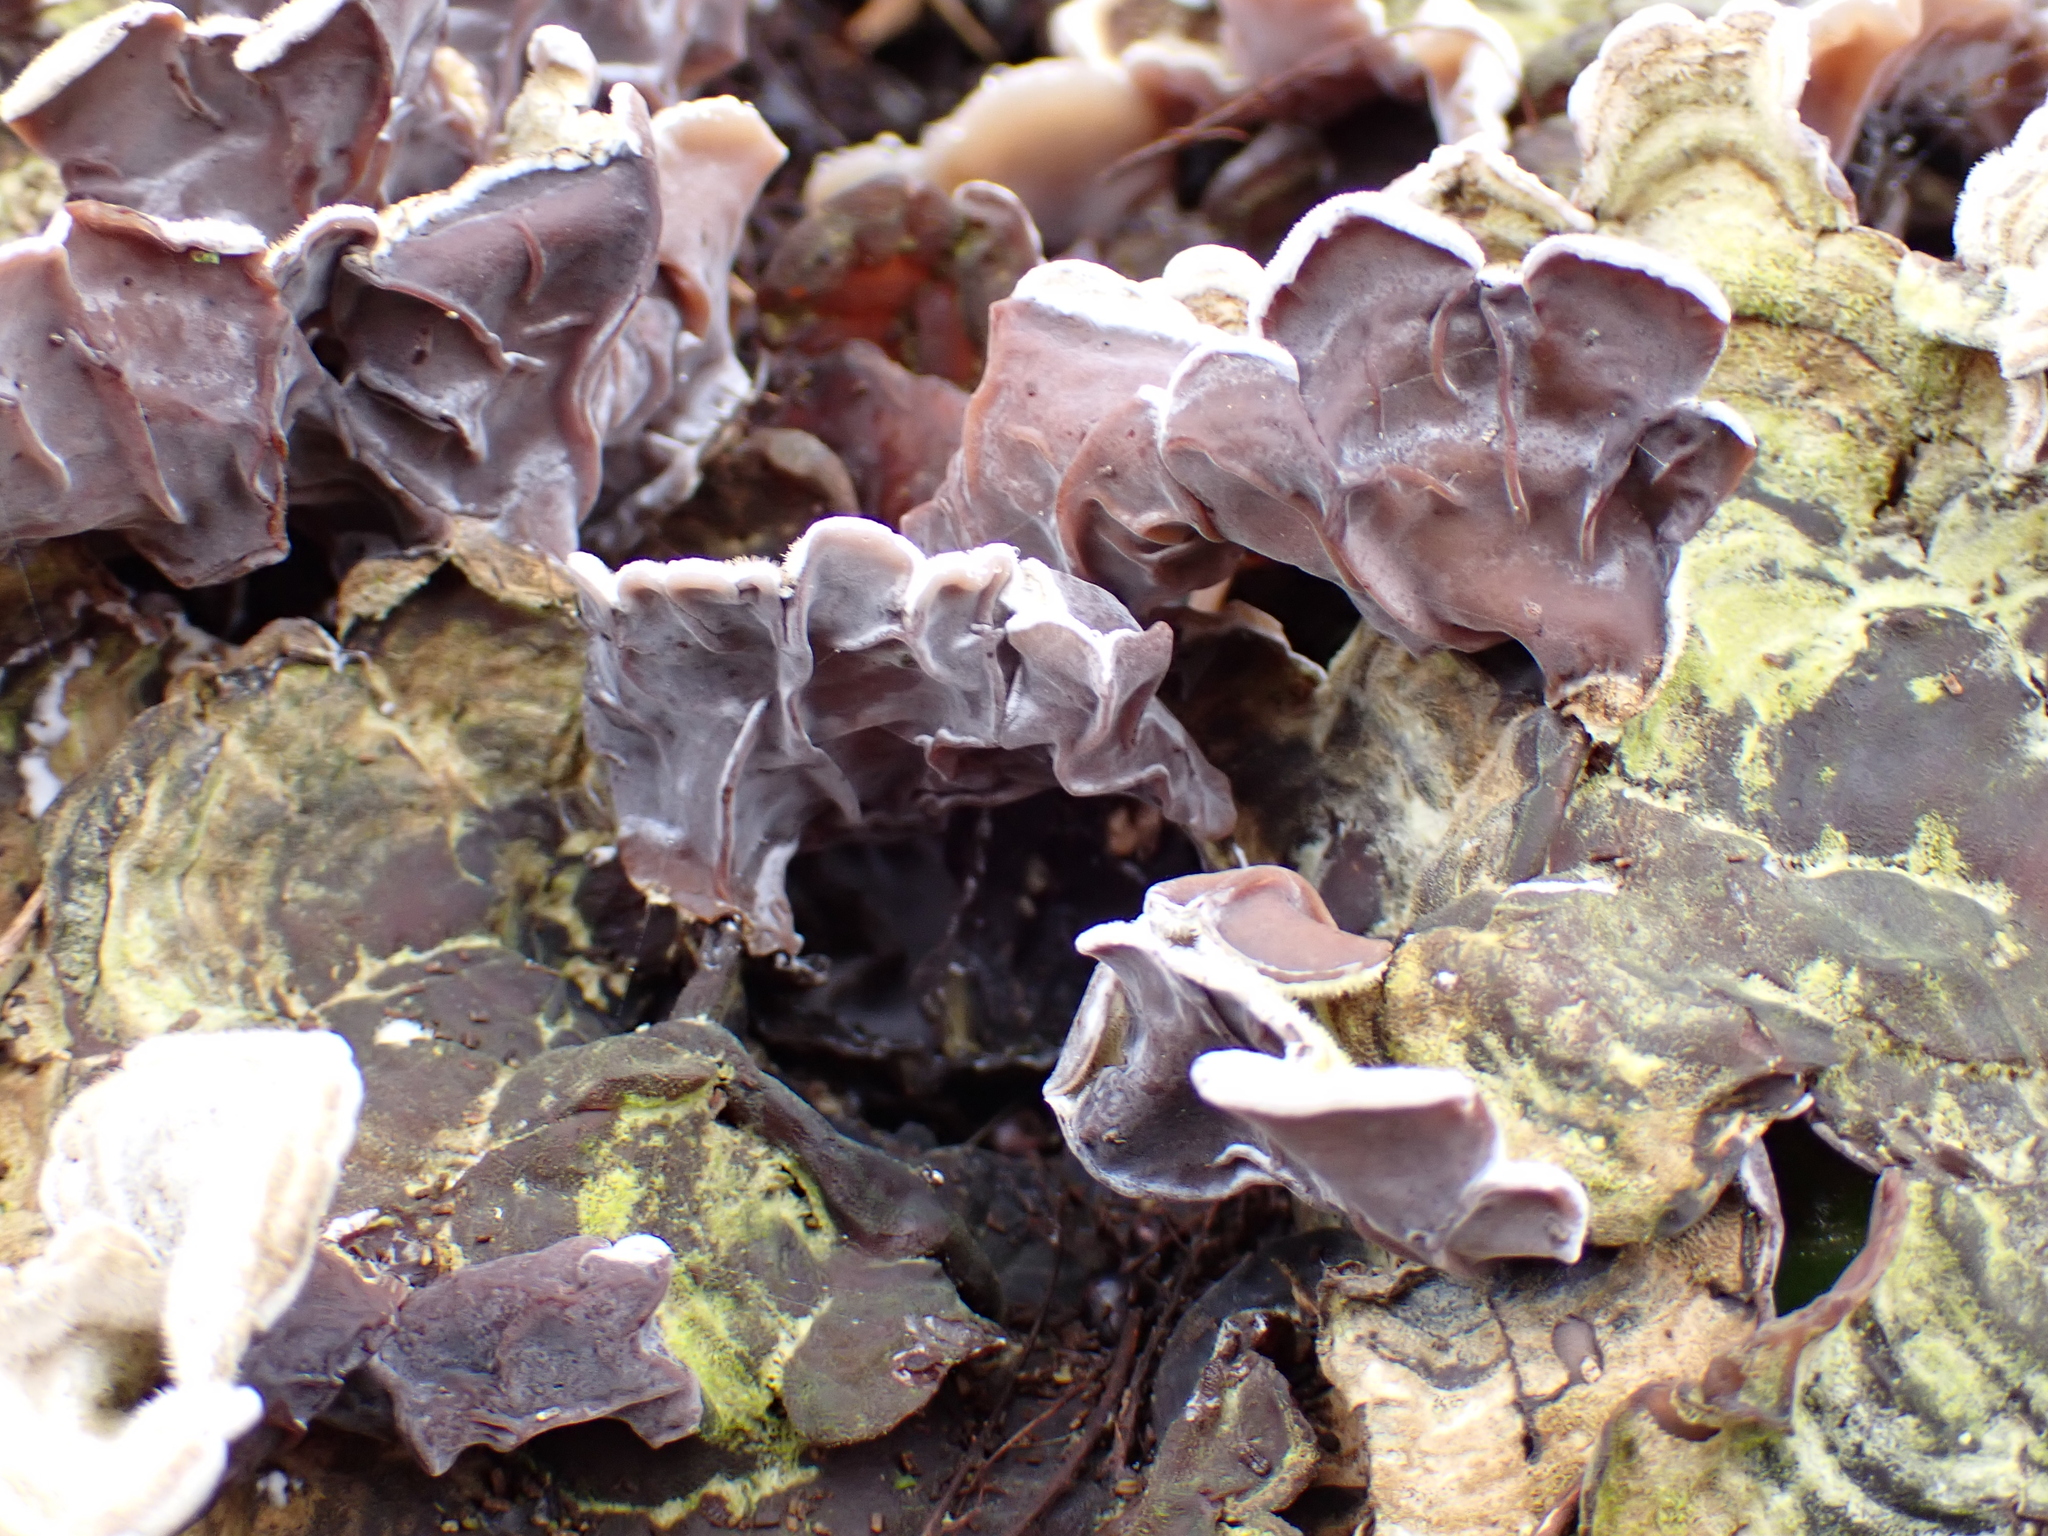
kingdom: Fungi
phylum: Basidiomycota
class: Agaricomycetes
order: Auriculariales
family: Auriculariaceae
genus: Auricularia
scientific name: Auricularia mesenterica
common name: Tripe fungus
